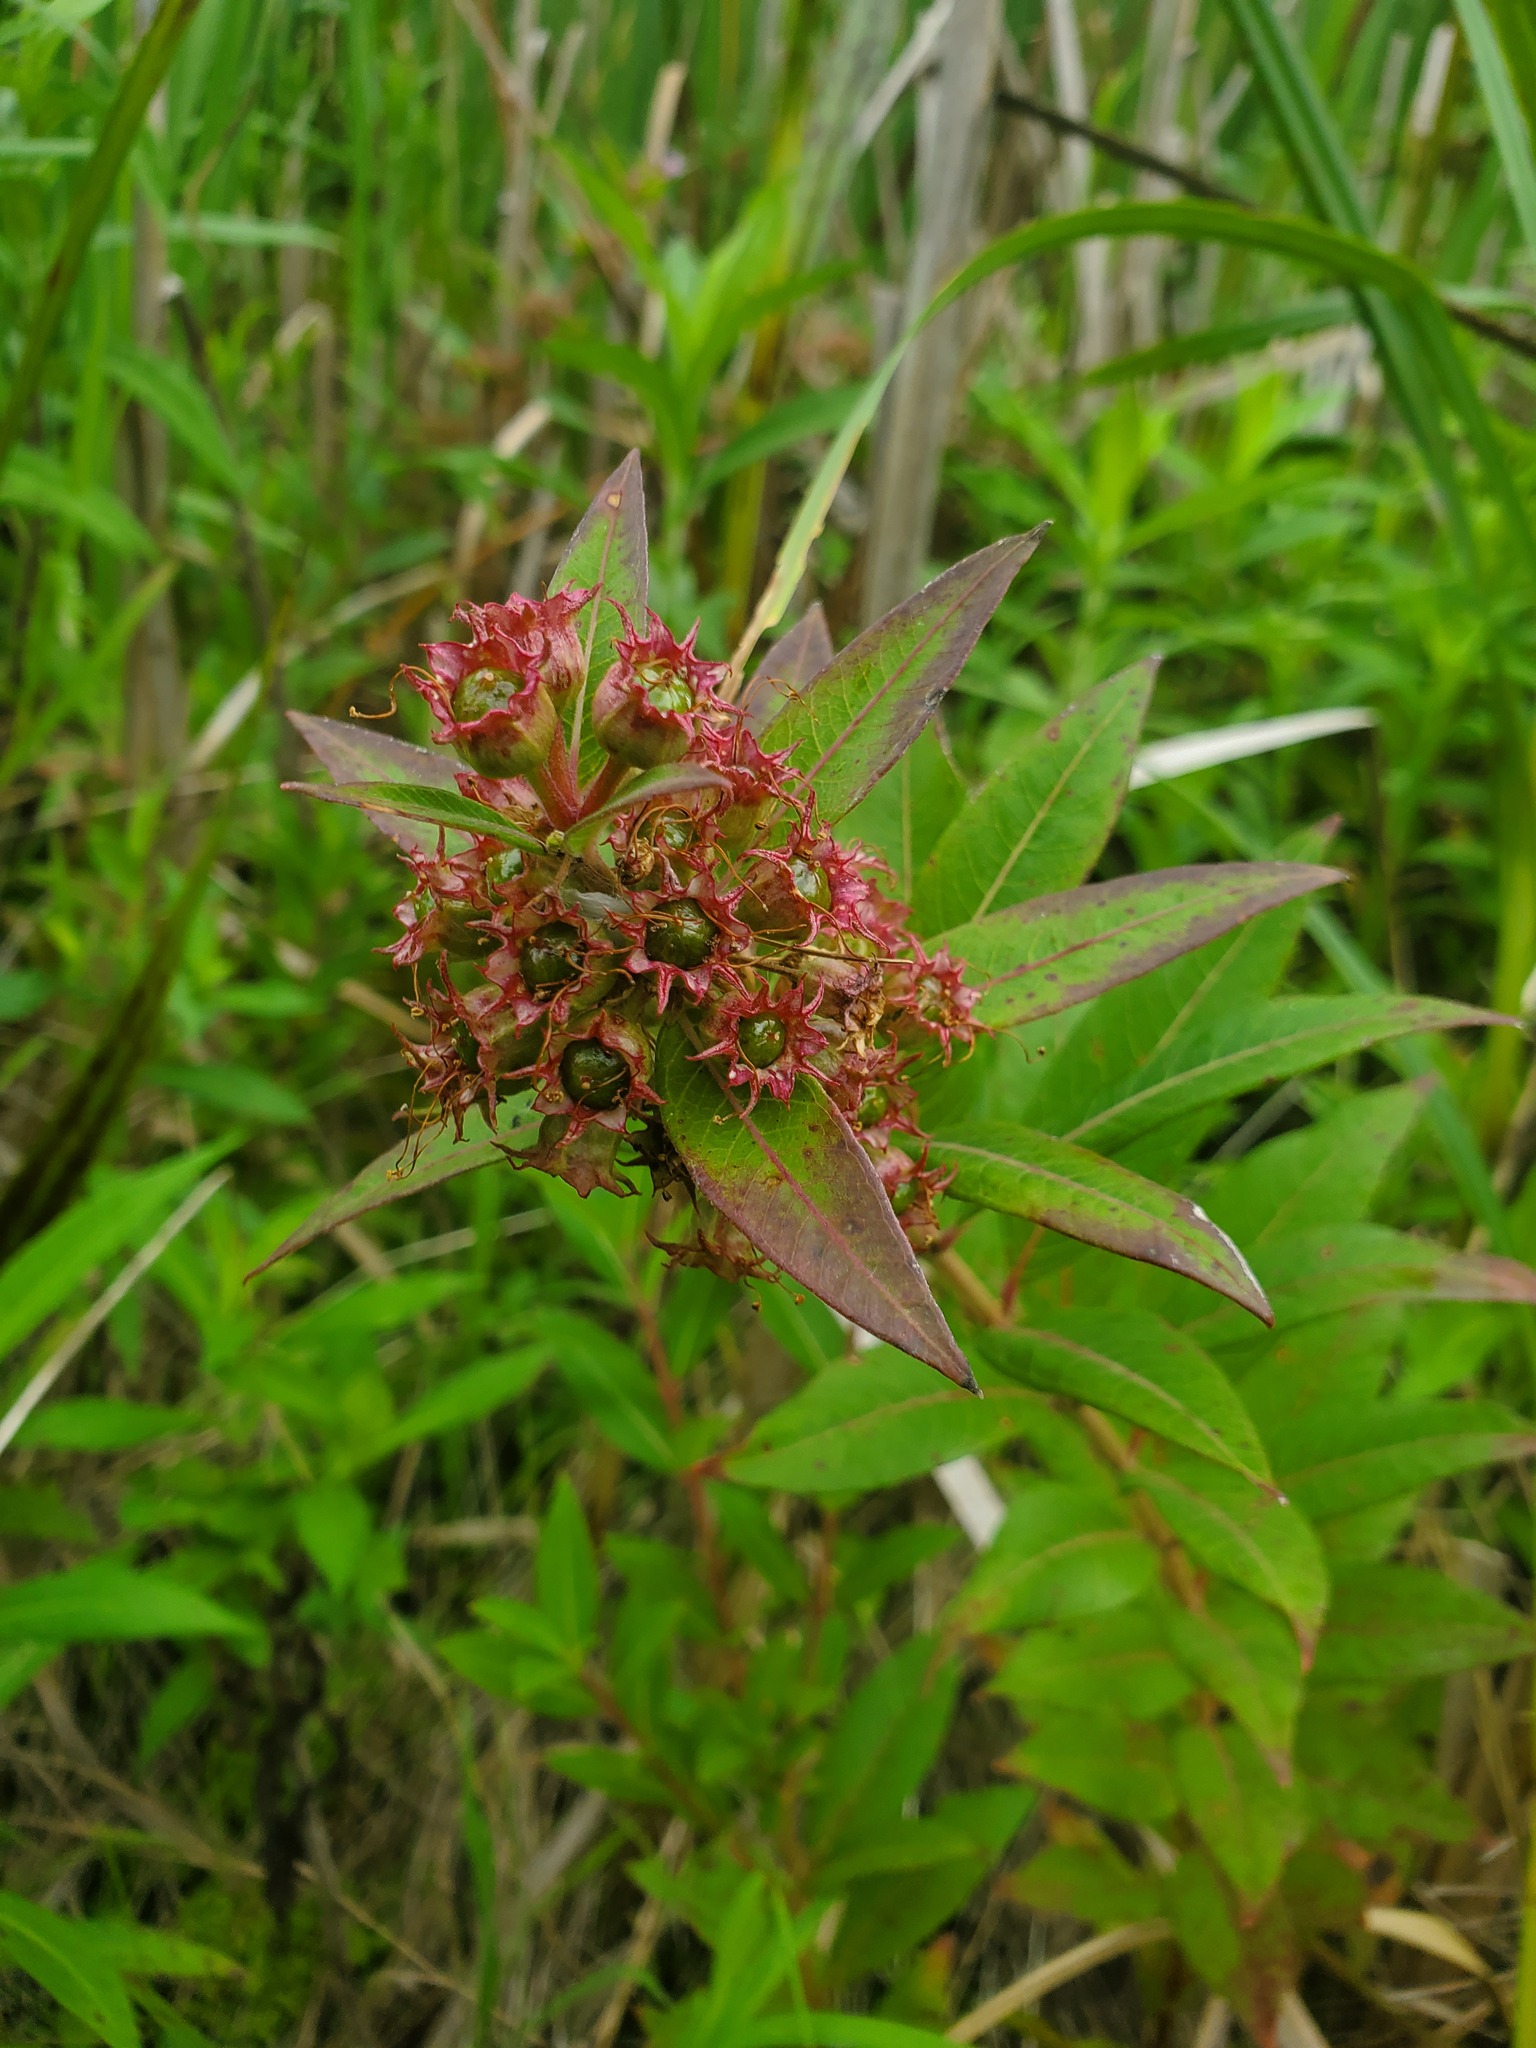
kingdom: Plantae
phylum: Tracheophyta
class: Magnoliopsida
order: Myrtales
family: Lythraceae
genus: Decodon
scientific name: Decodon verticillatus
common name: Hairy swamp loosestrife
